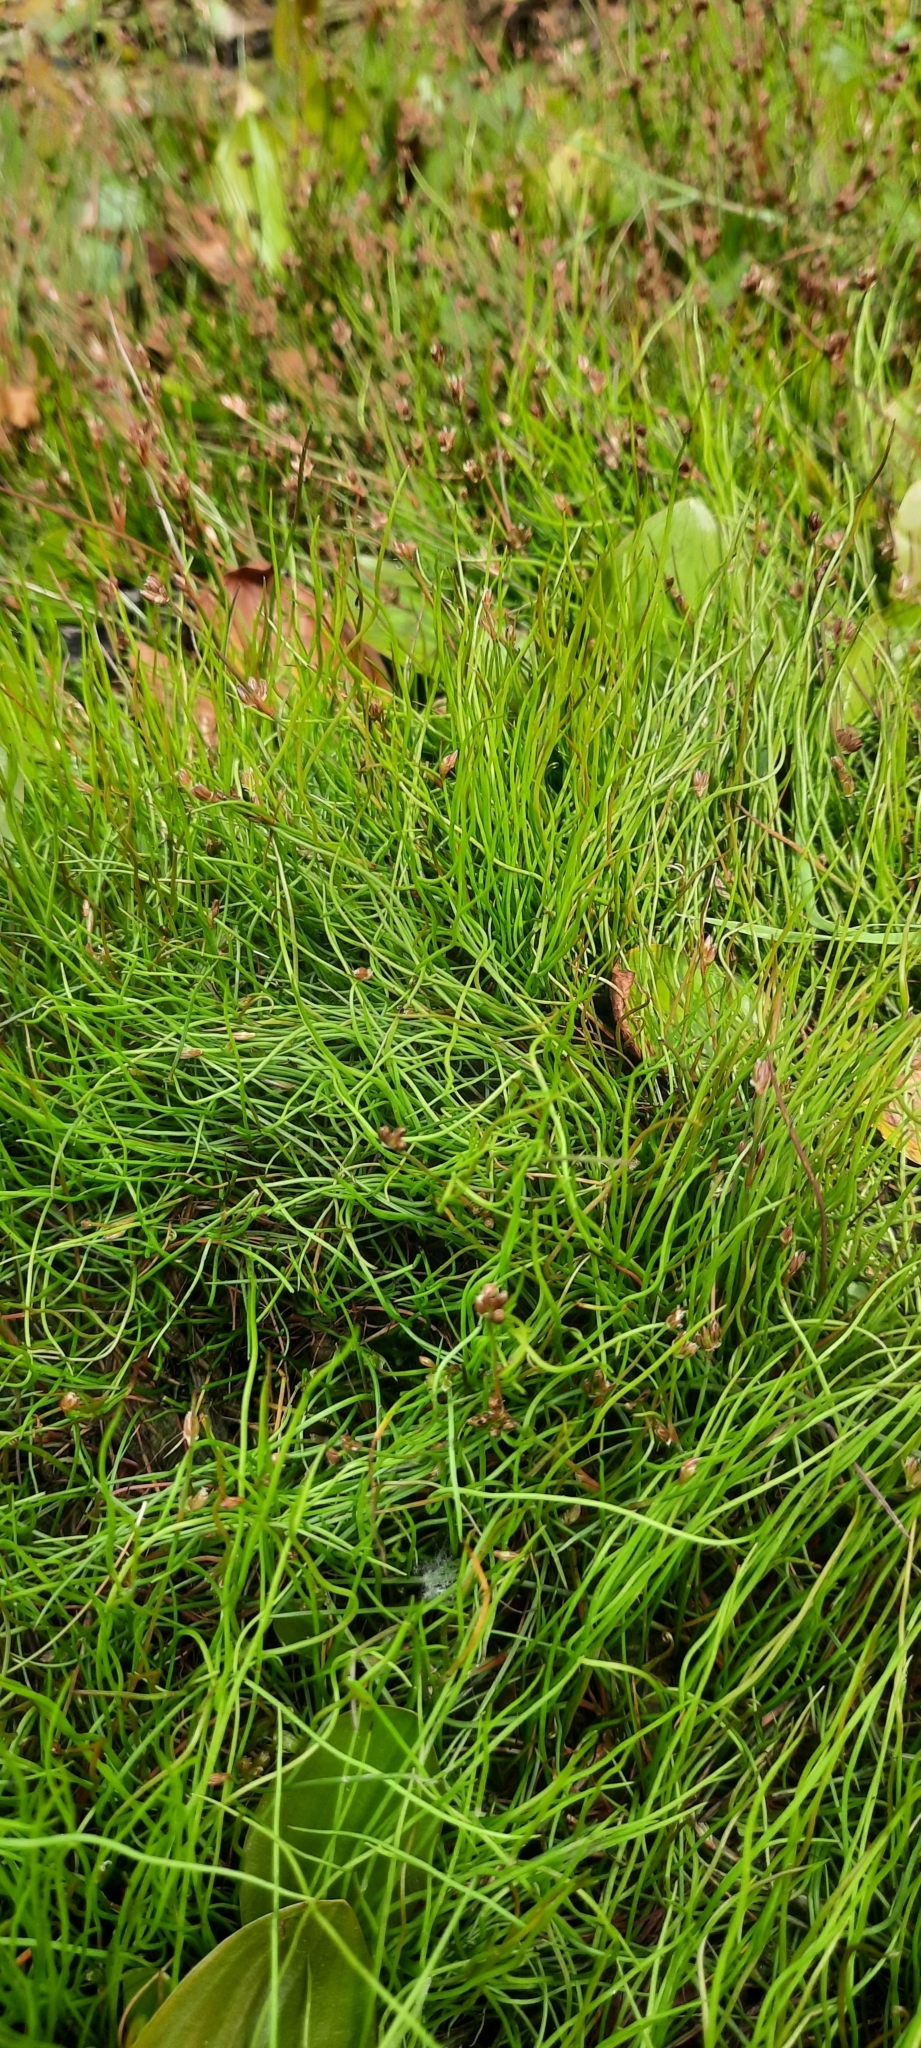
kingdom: Plantae
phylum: Tracheophyta
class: Liliopsida
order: Poales
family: Juncaceae
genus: Juncus
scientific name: Juncus bulbosus
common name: Bulbous rush
